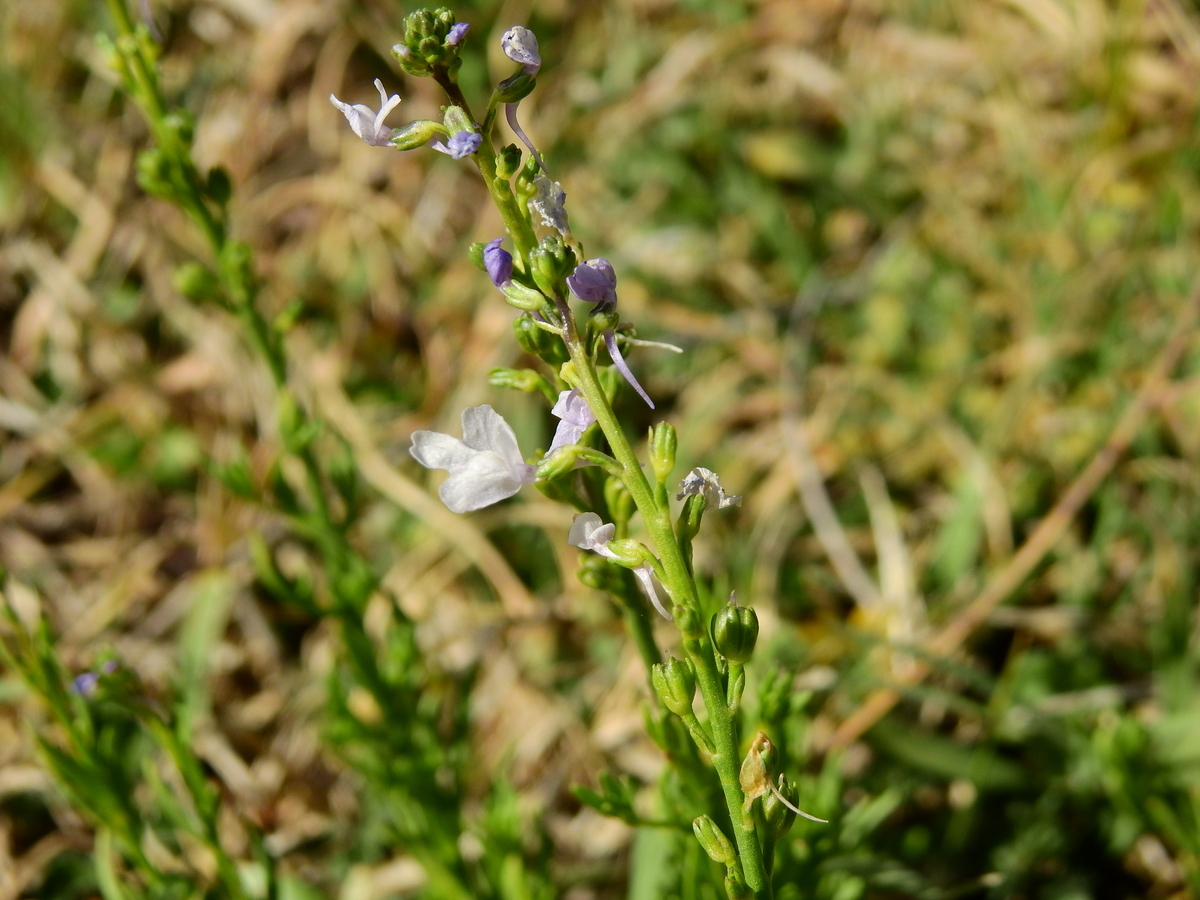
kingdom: Plantae
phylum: Tracheophyta
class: Magnoliopsida
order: Lamiales
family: Plantaginaceae
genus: Nuttallanthus
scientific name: Nuttallanthus canadensis
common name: Blue toadflax
